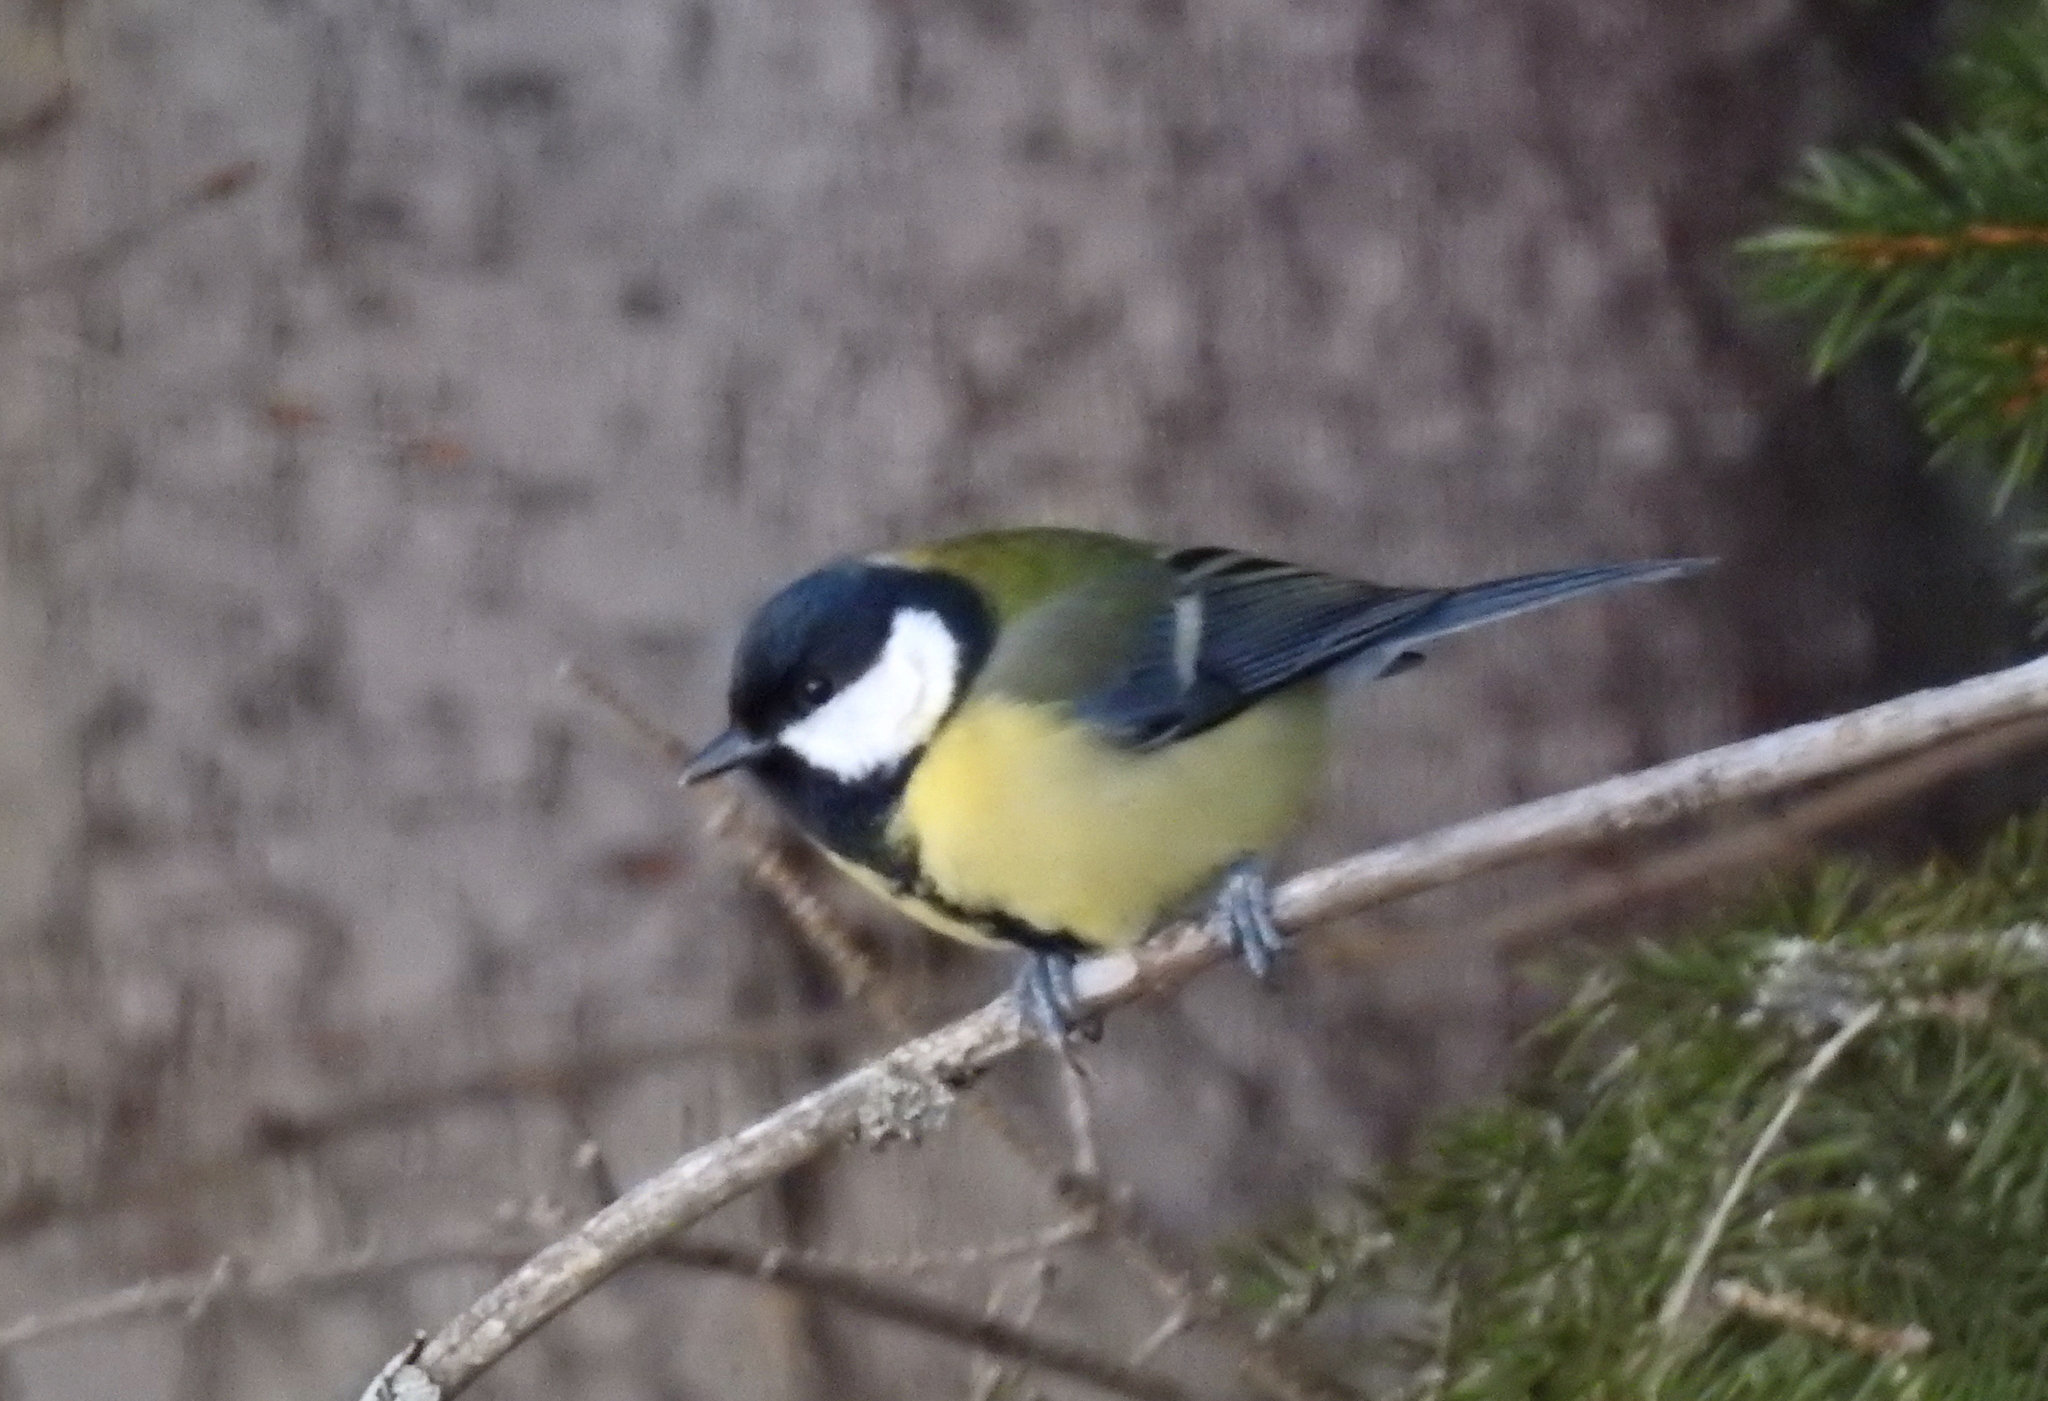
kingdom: Animalia
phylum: Chordata
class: Aves
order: Passeriformes
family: Paridae
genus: Parus
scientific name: Parus major
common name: Great tit
